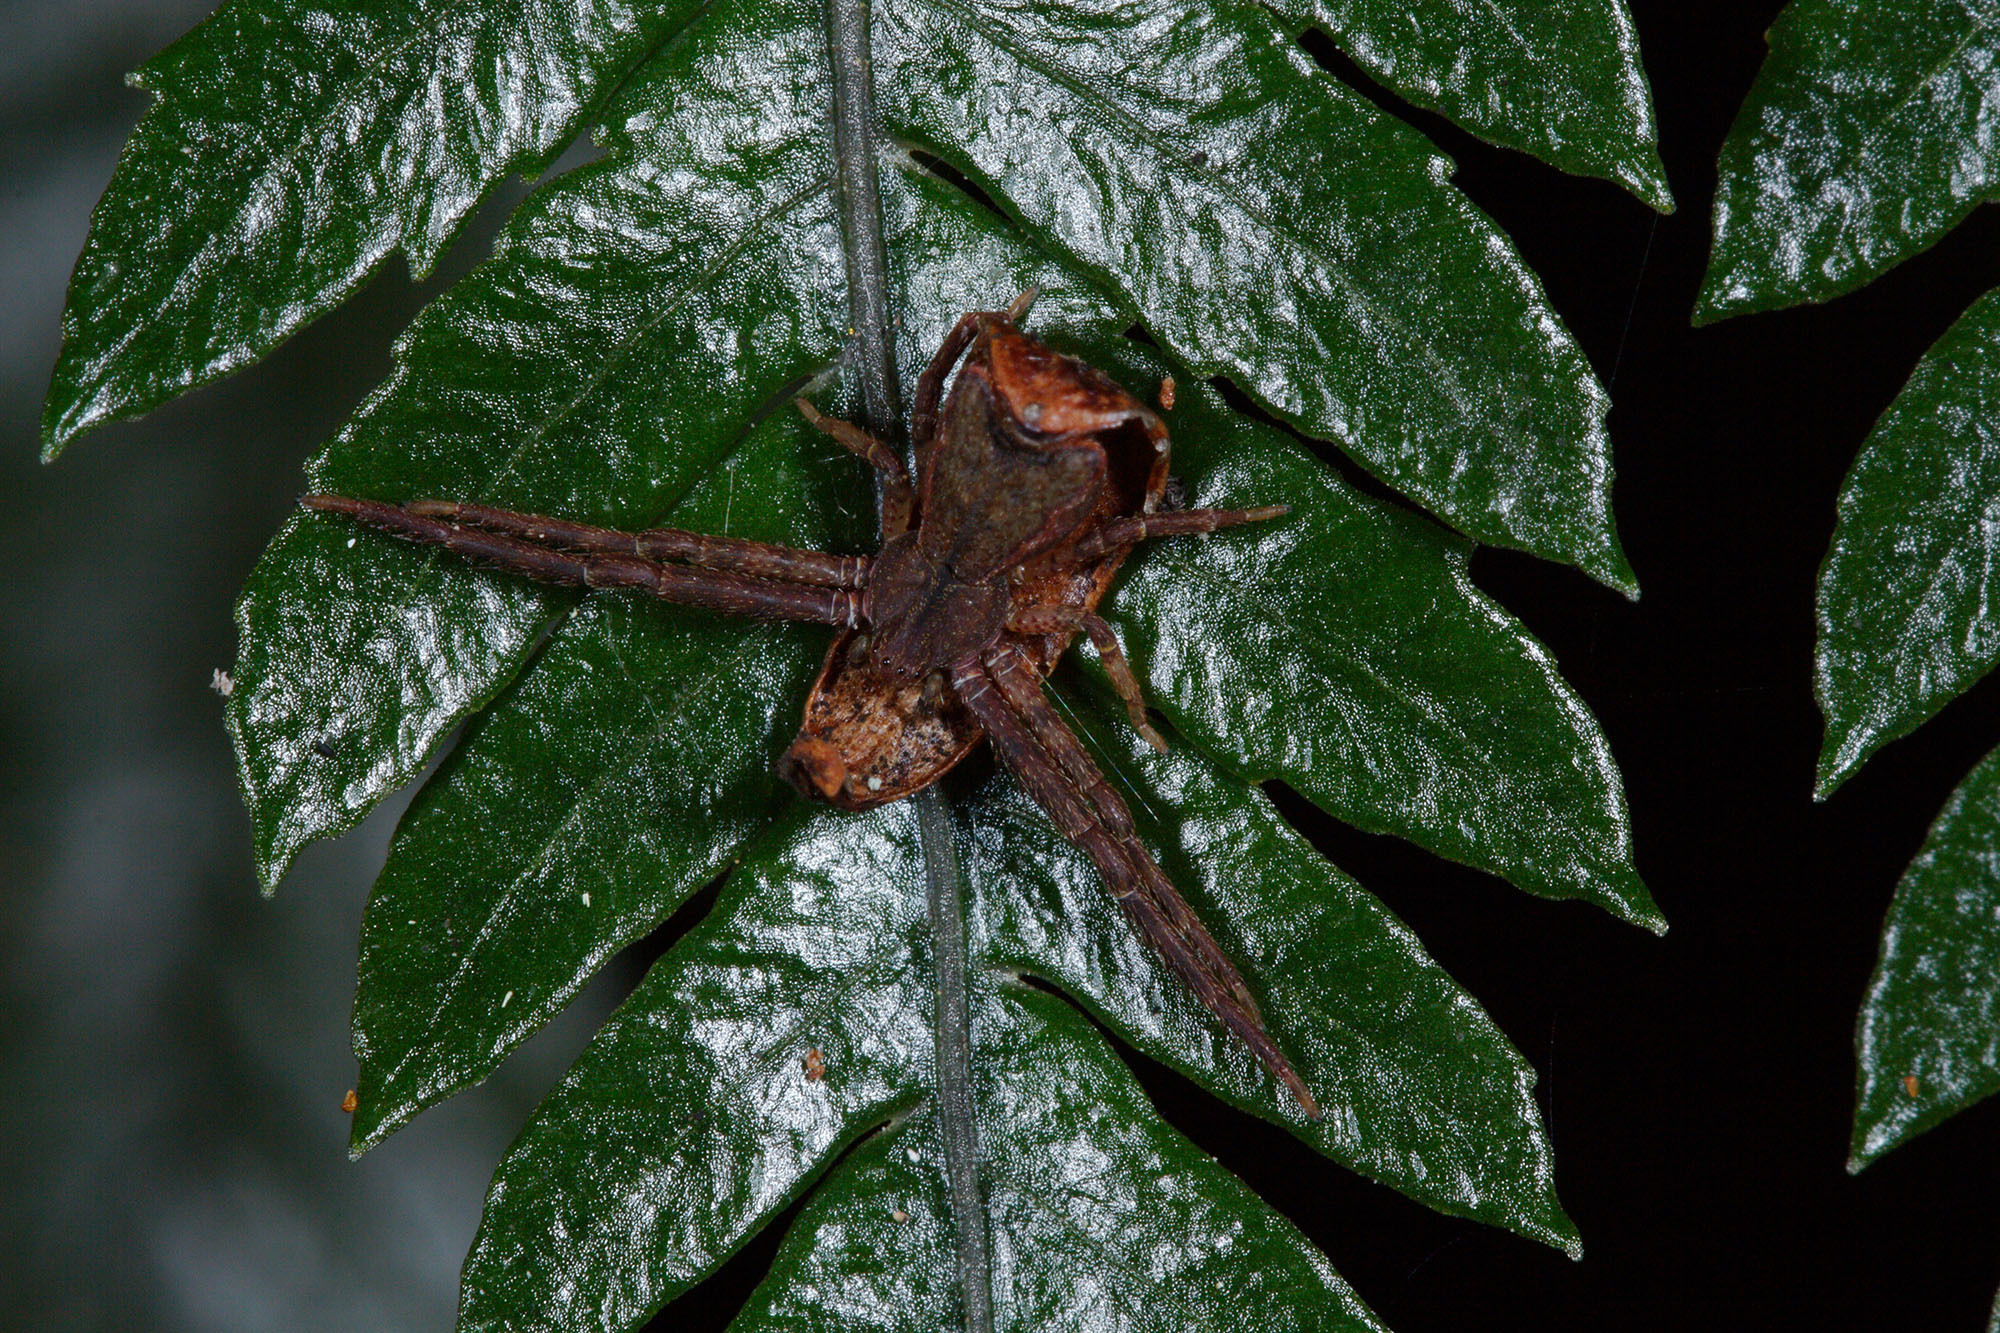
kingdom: Animalia
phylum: Arthropoda
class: Arachnida
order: Araneae
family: Thomisidae
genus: Sidymella
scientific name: Sidymella angularis
